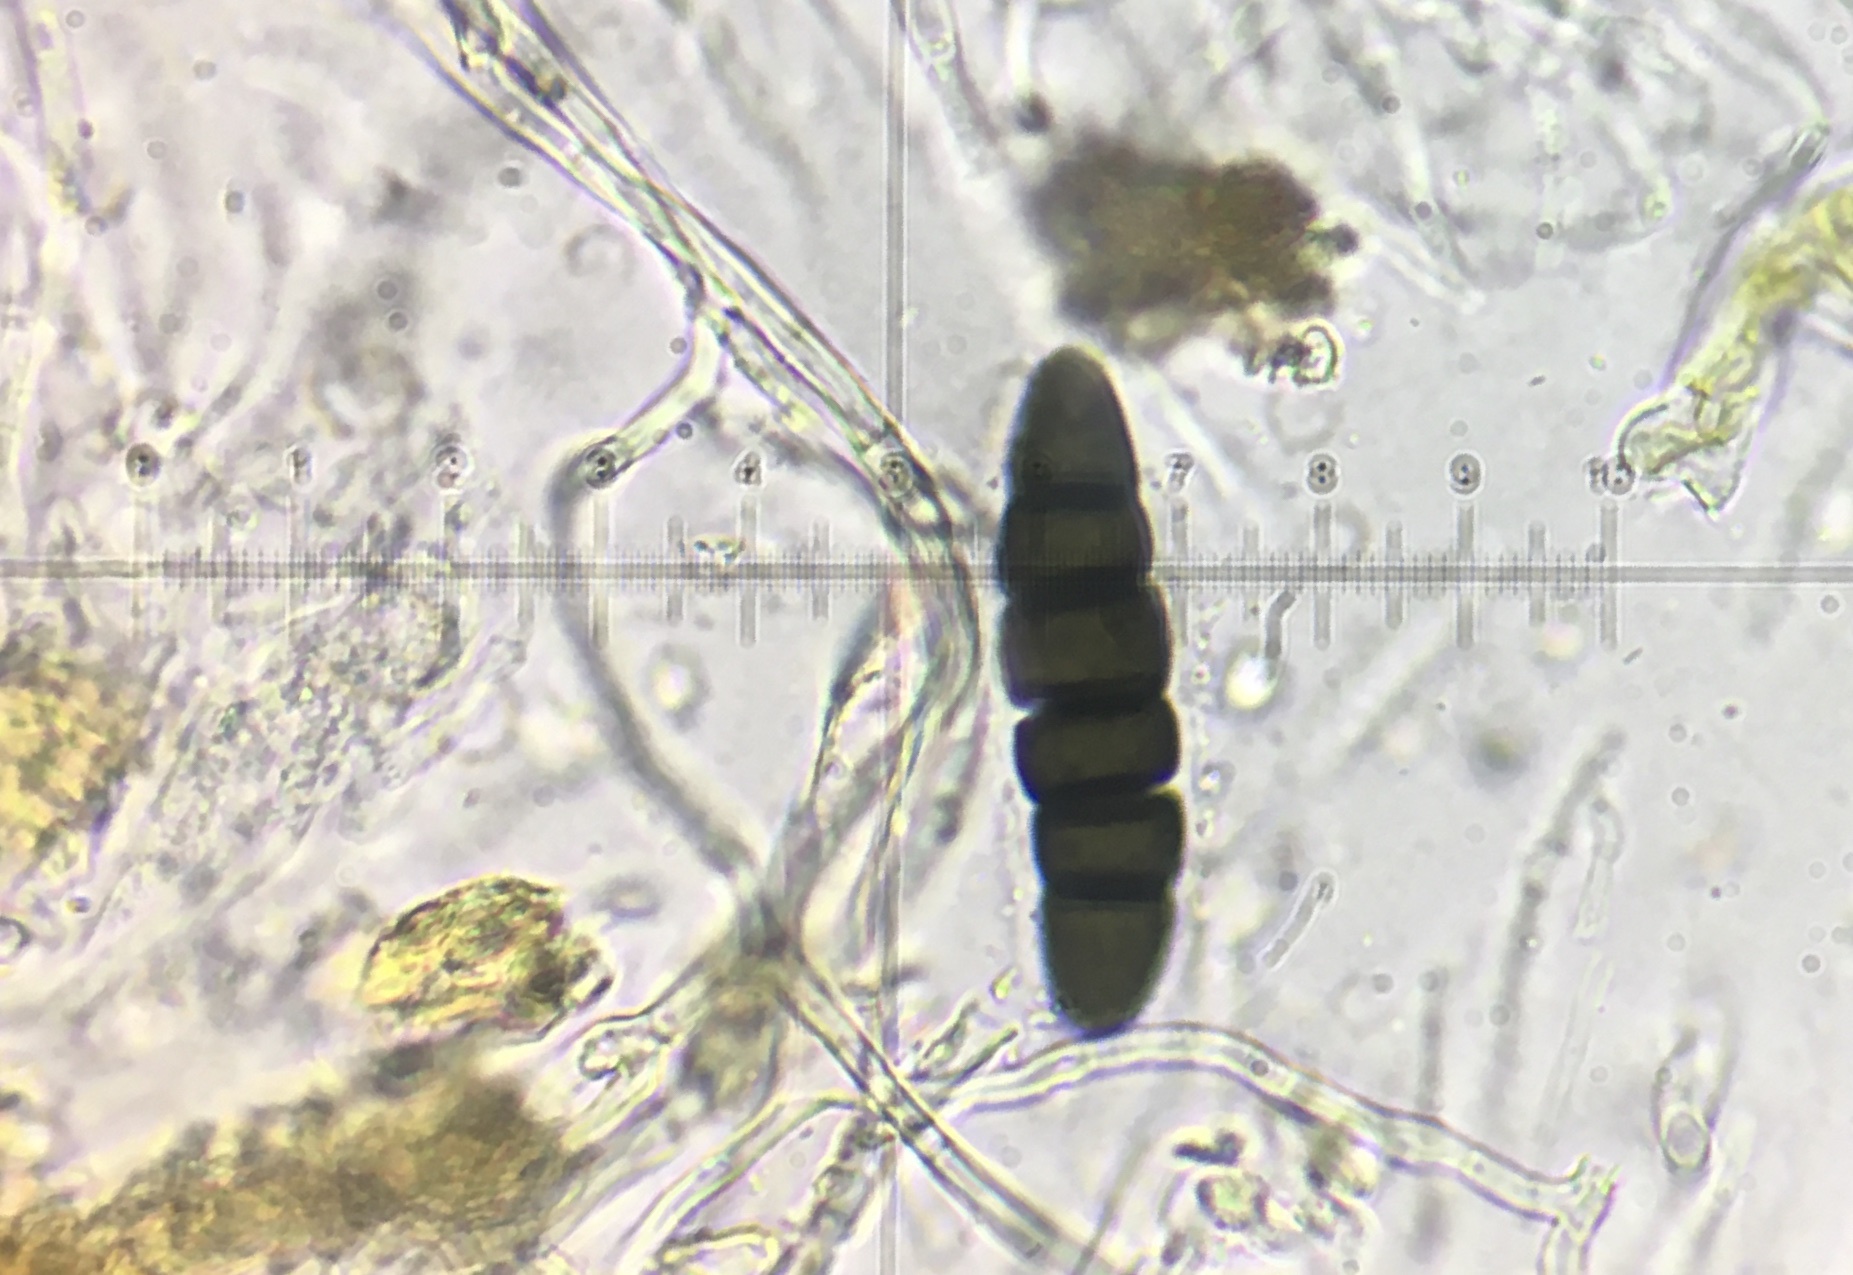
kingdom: Fungi
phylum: Ascomycota
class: Dothideomycetes
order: Pleosporales
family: Sporormiaceae
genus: Sporormiella
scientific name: Sporormiella hexamera
